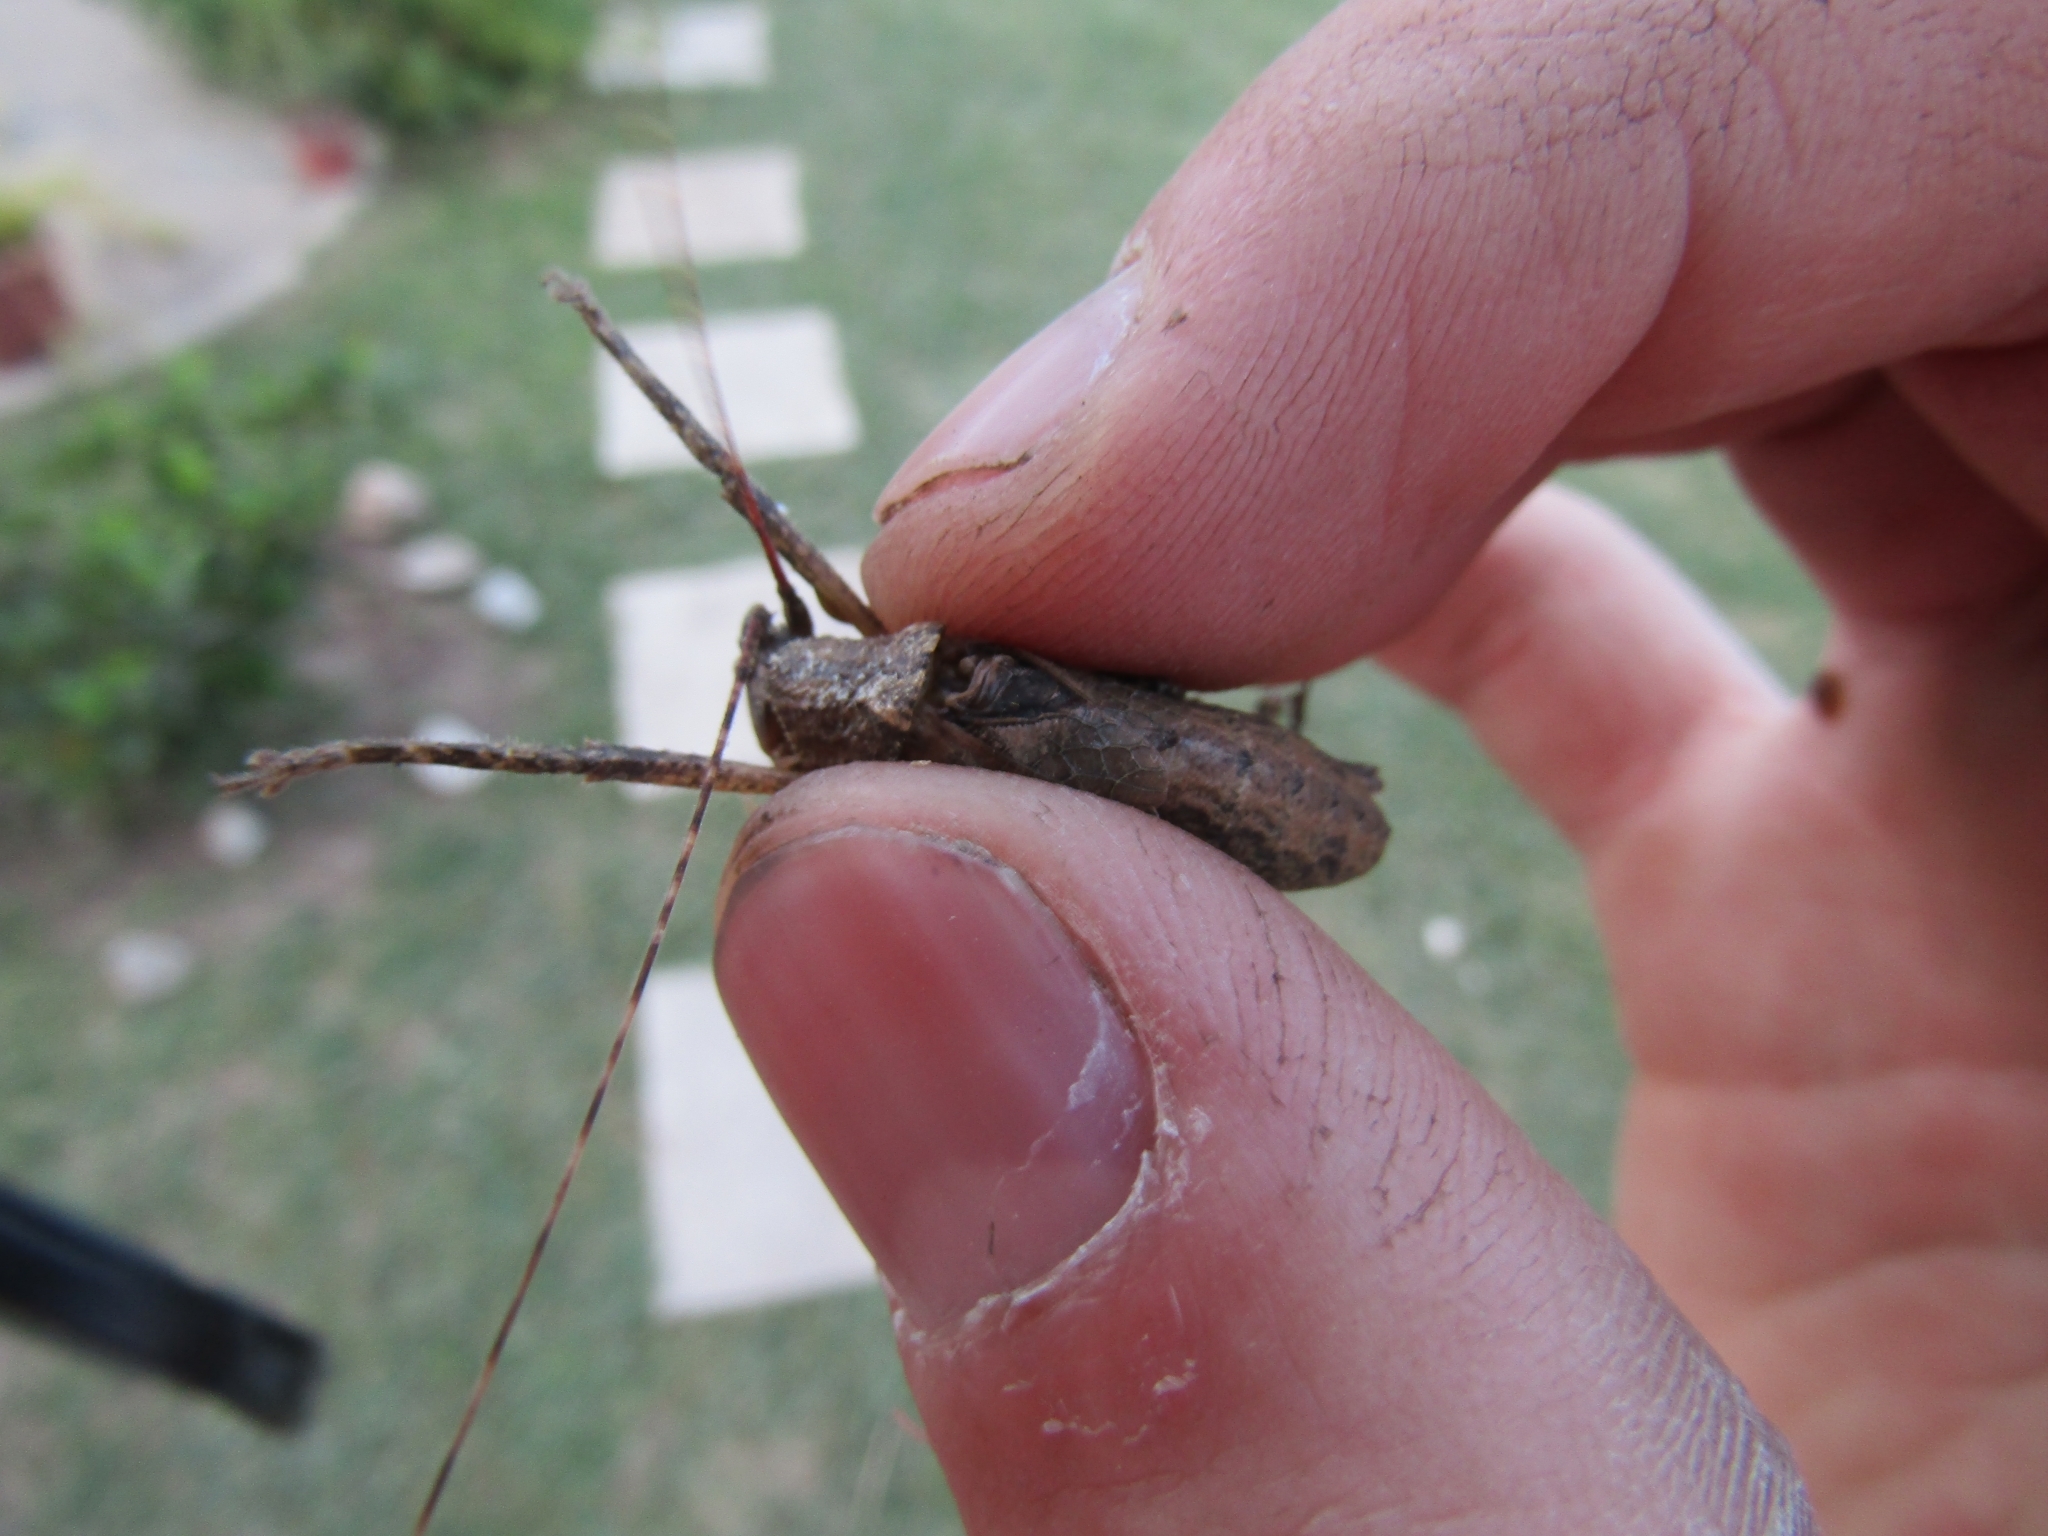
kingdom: Animalia
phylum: Arthropoda
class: Insecta
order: Orthoptera
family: Tettigoniidae
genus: Dasyscelus
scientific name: Dasyscelus normalis
